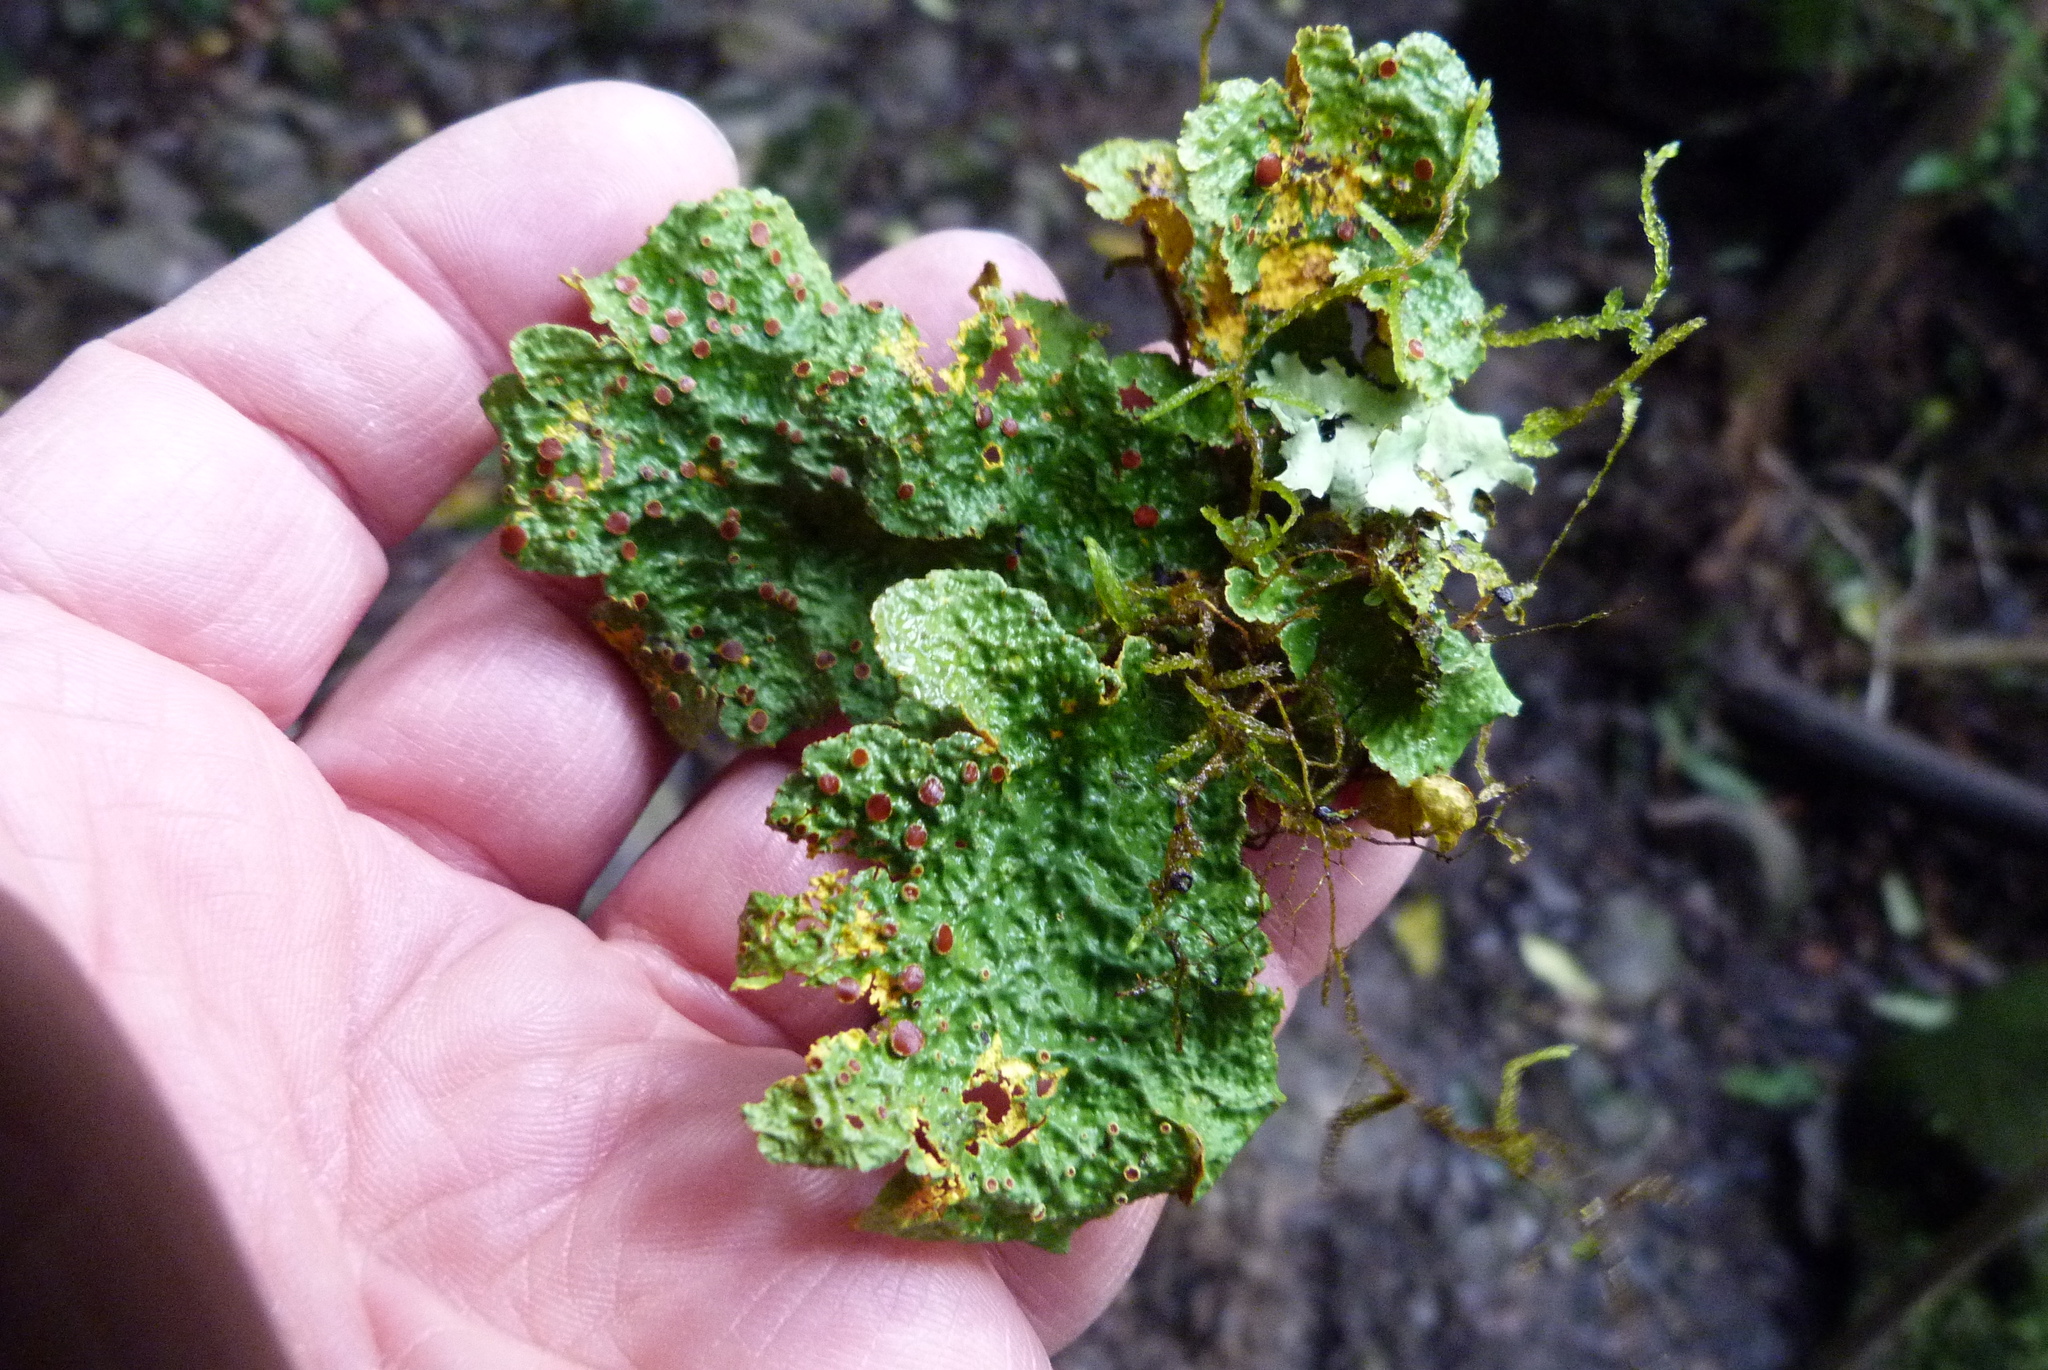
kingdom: Fungi
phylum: Ascomycota
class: Lecanoromycetes
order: Peltigerales
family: Lobariaceae
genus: Yarrumia
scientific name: Yarrumia coronata
